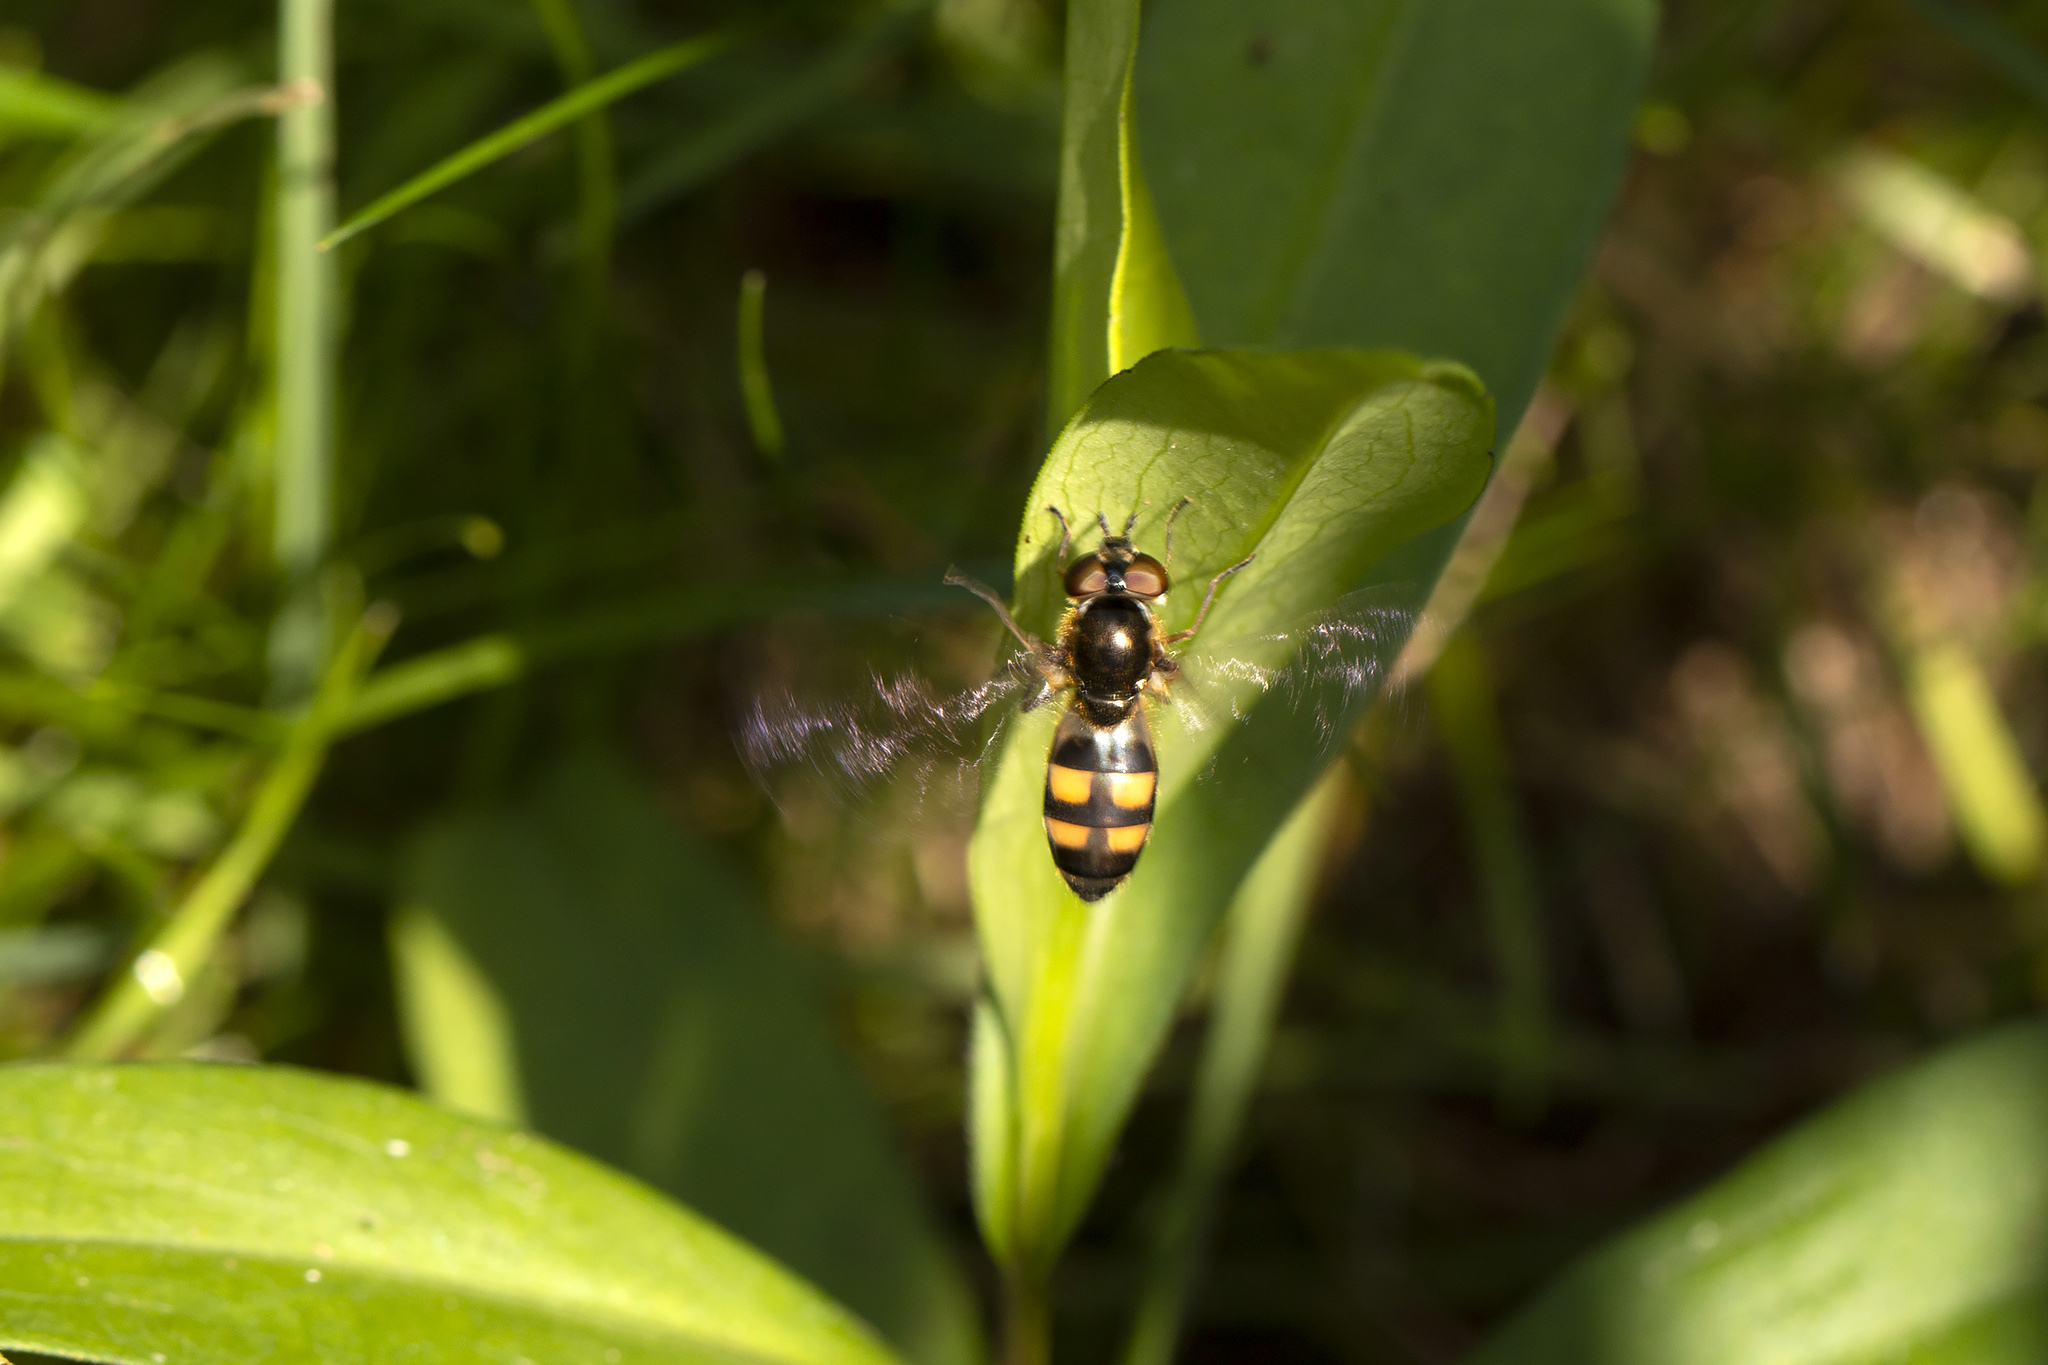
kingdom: Animalia
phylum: Arthropoda
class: Insecta
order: Diptera
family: Syrphidae
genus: Xanthandrus
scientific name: Xanthandrus comtus
